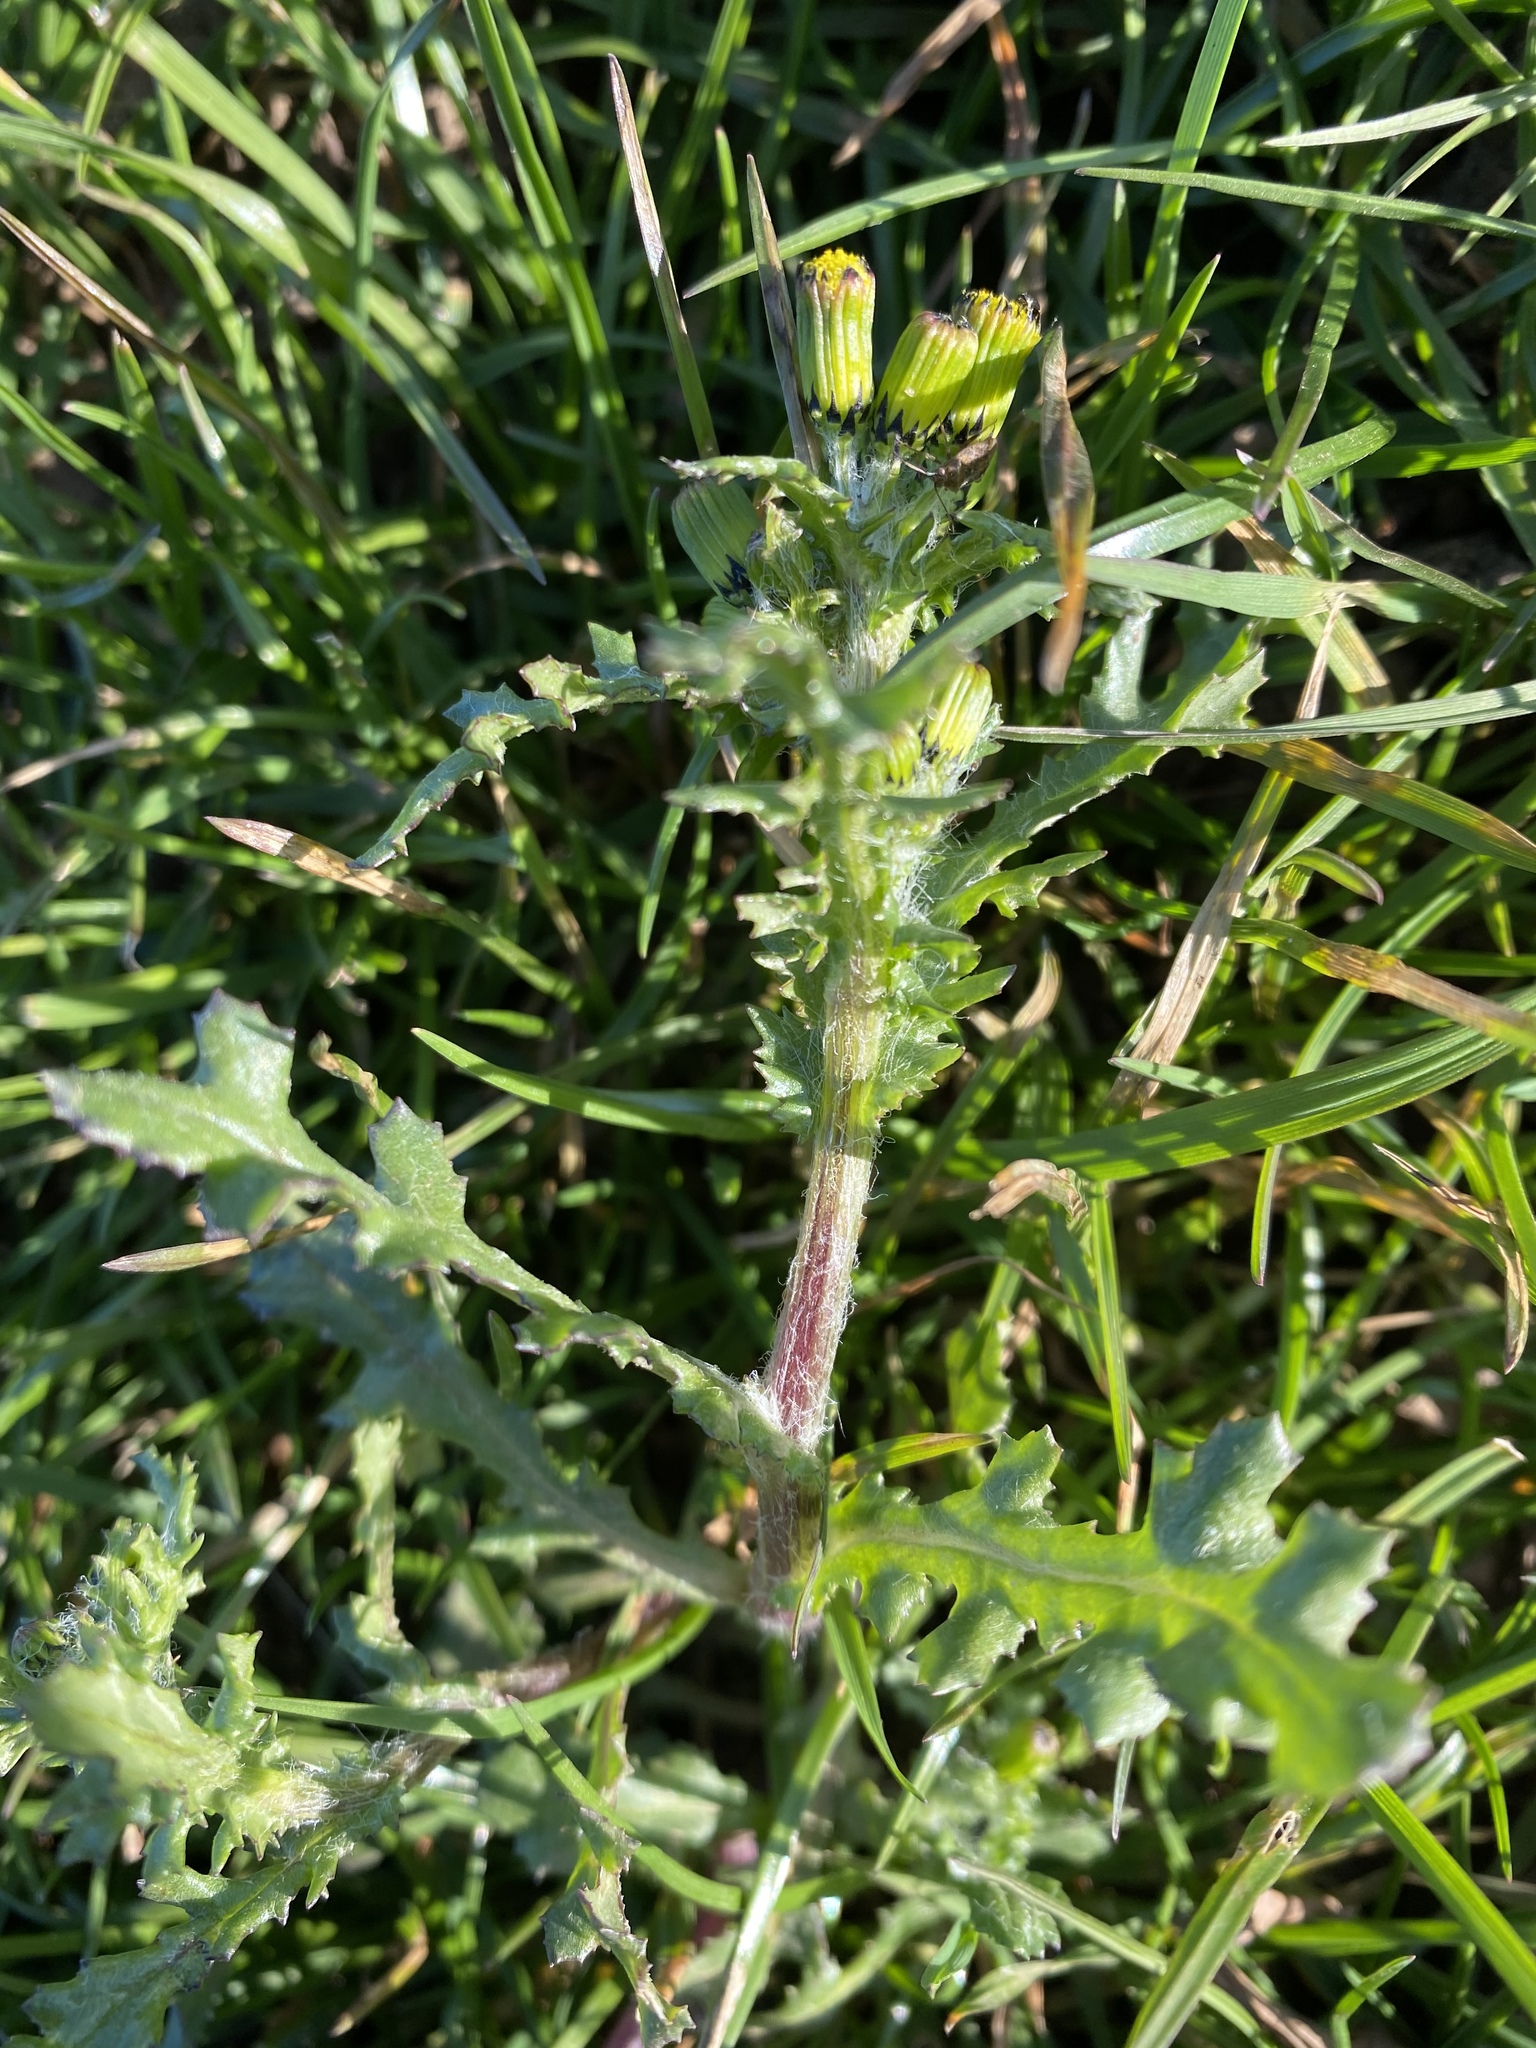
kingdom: Plantae
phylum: Tracheophyta
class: Magnoliopsida
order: Asterales
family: Asteraceae
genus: Senecio
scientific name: Senecio vulgaris
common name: Old-man-in-the-spring
